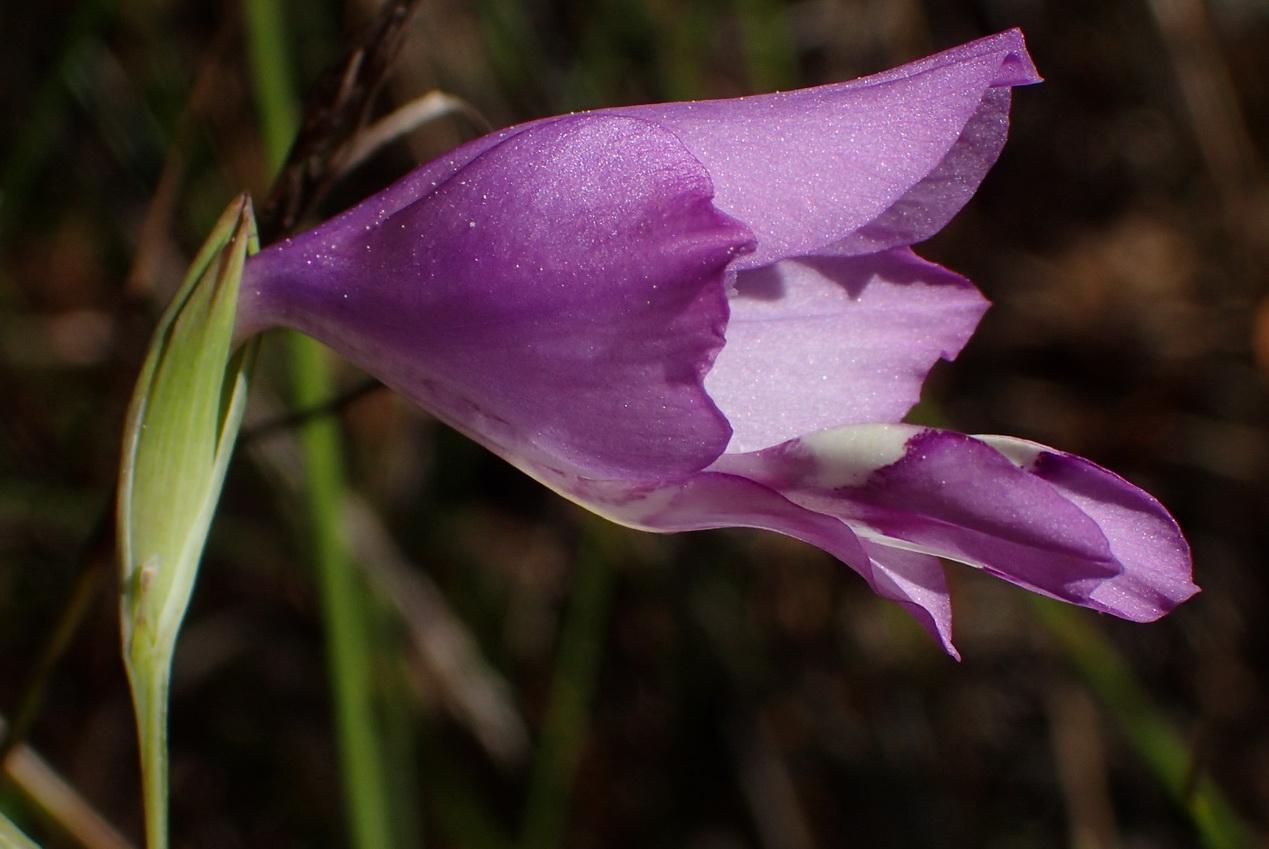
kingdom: Plantae
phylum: Tracheophyta
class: Liliopsida
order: Asparagales
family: Iridaceae
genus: Gladiolus
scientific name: Gladiolus rogersii
